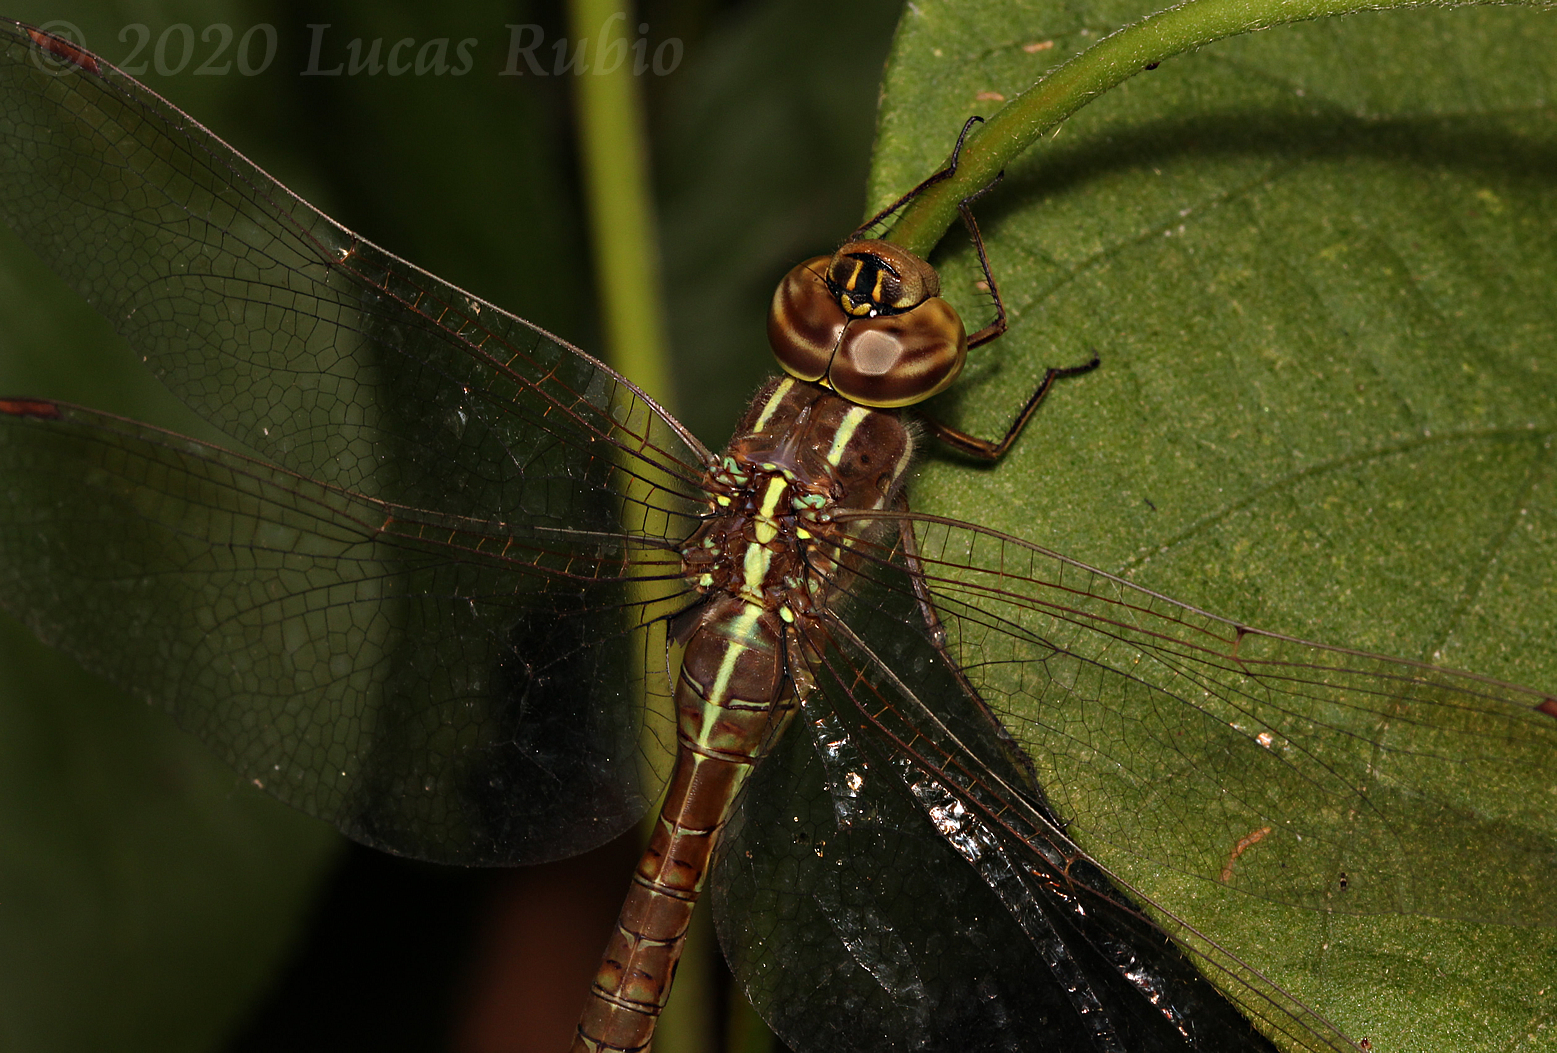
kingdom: Animalia
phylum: Arthropoda
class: Insecta
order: Odonata
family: Aeshnidae
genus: Rhionaeschna
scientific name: Rhionaeschna confusa
